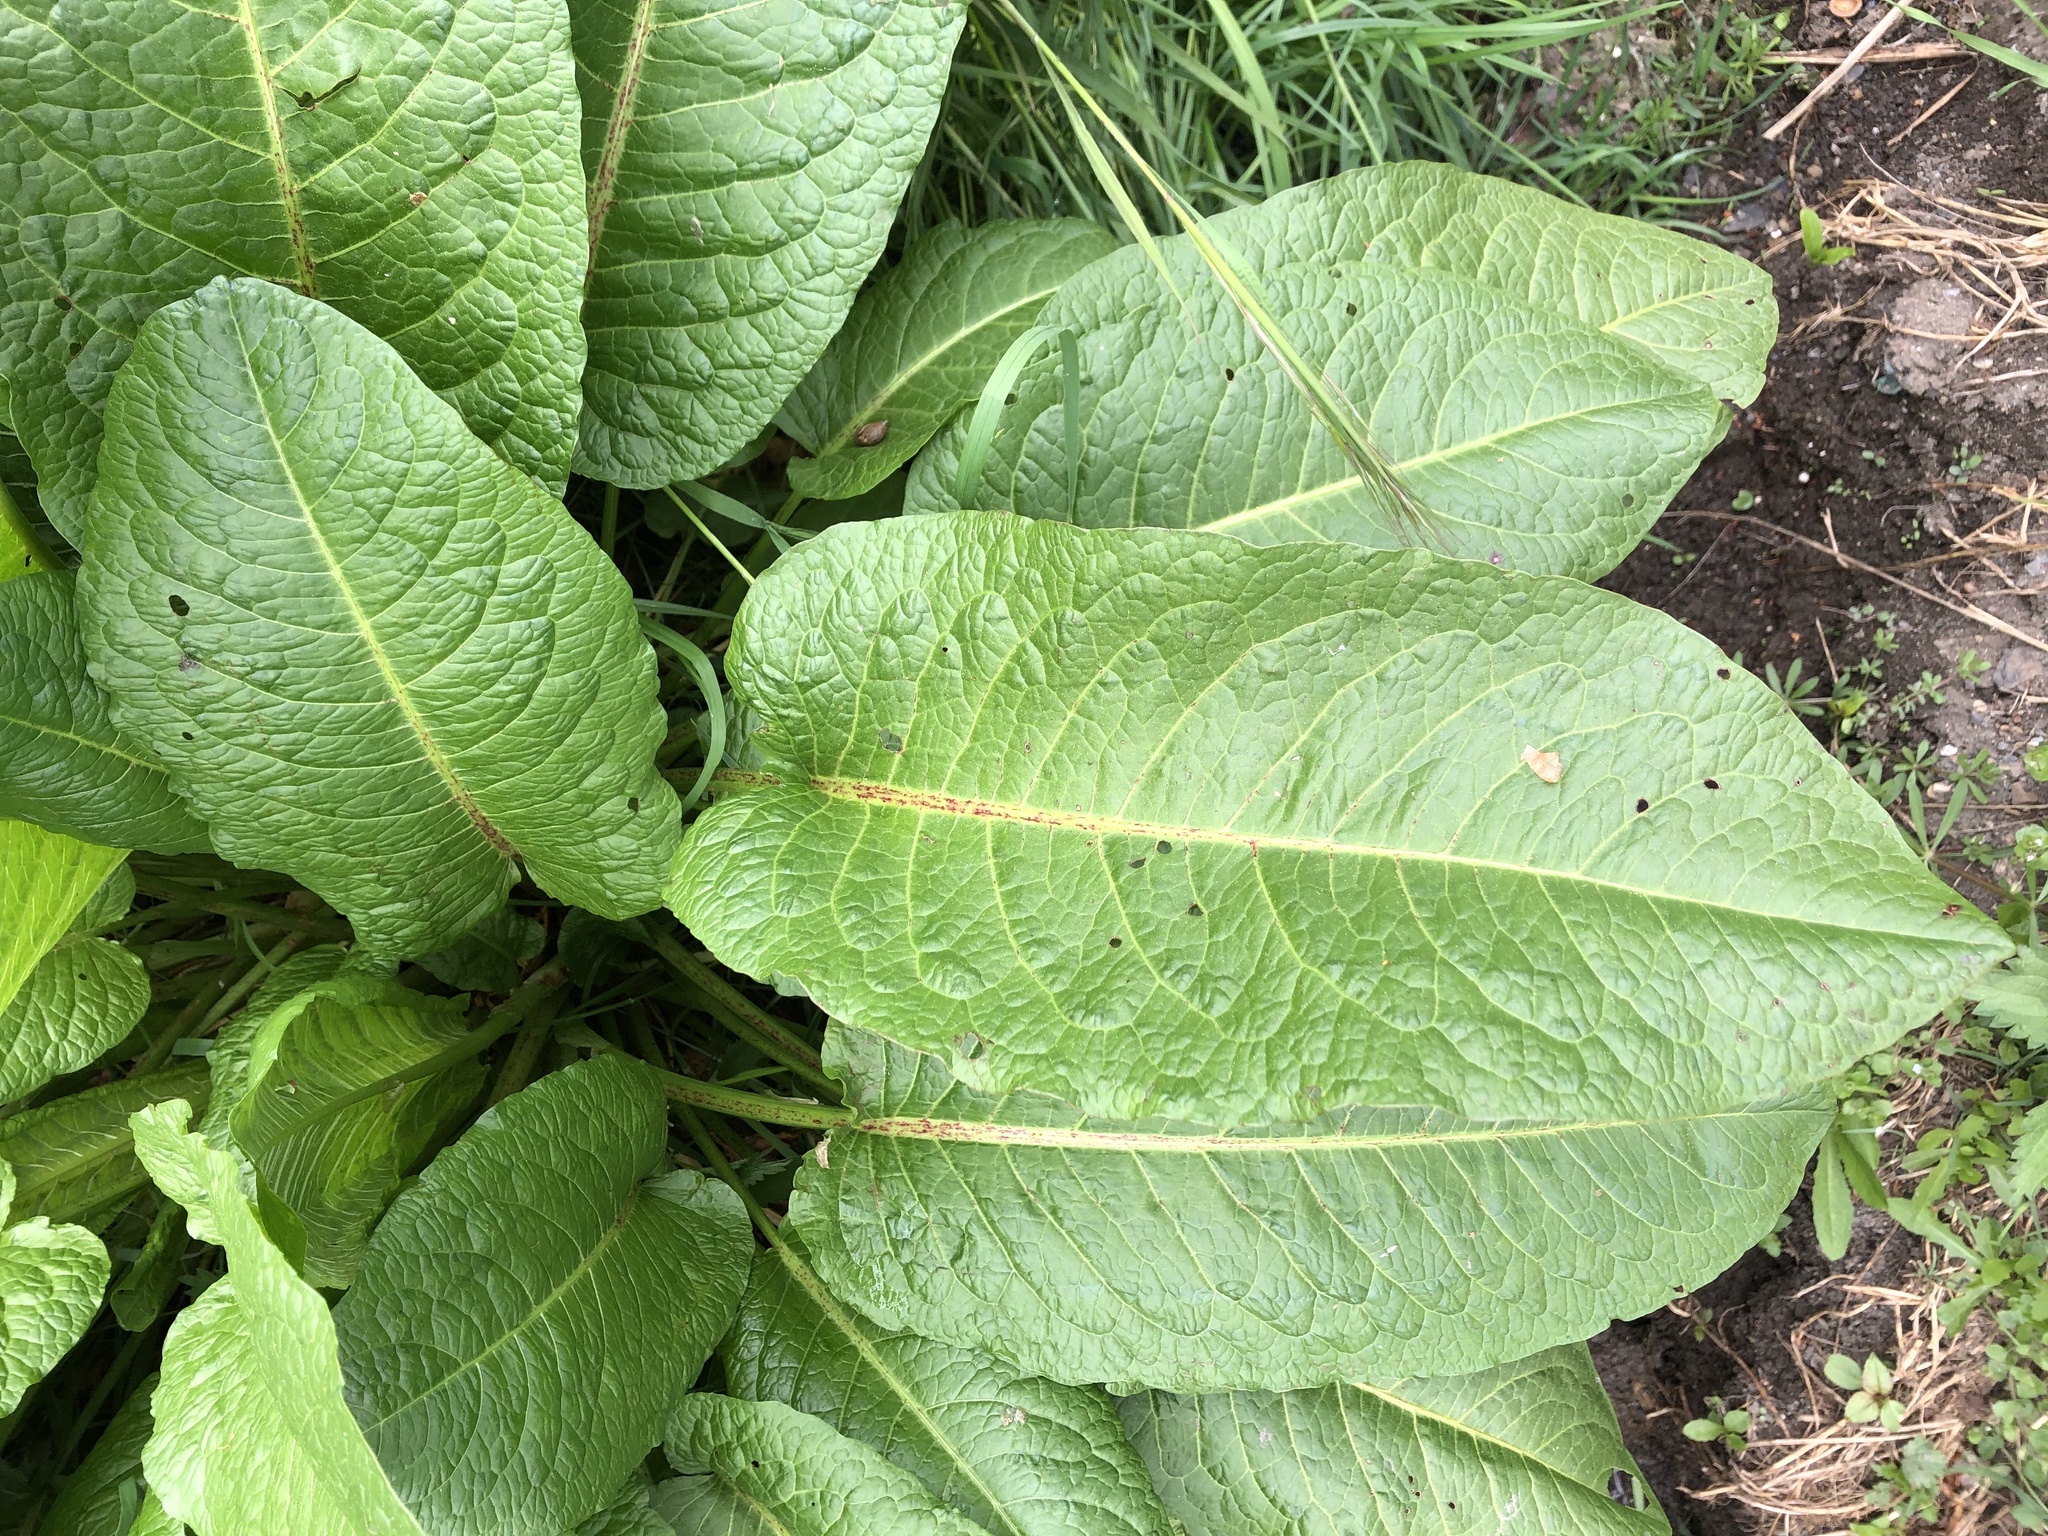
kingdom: Plantae
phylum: Tracheophyta
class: Magnoliopsida
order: Caryophyllales
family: Polygonaceae
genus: Rumex
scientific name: Rumex obtusifolius
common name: Bitter dock
